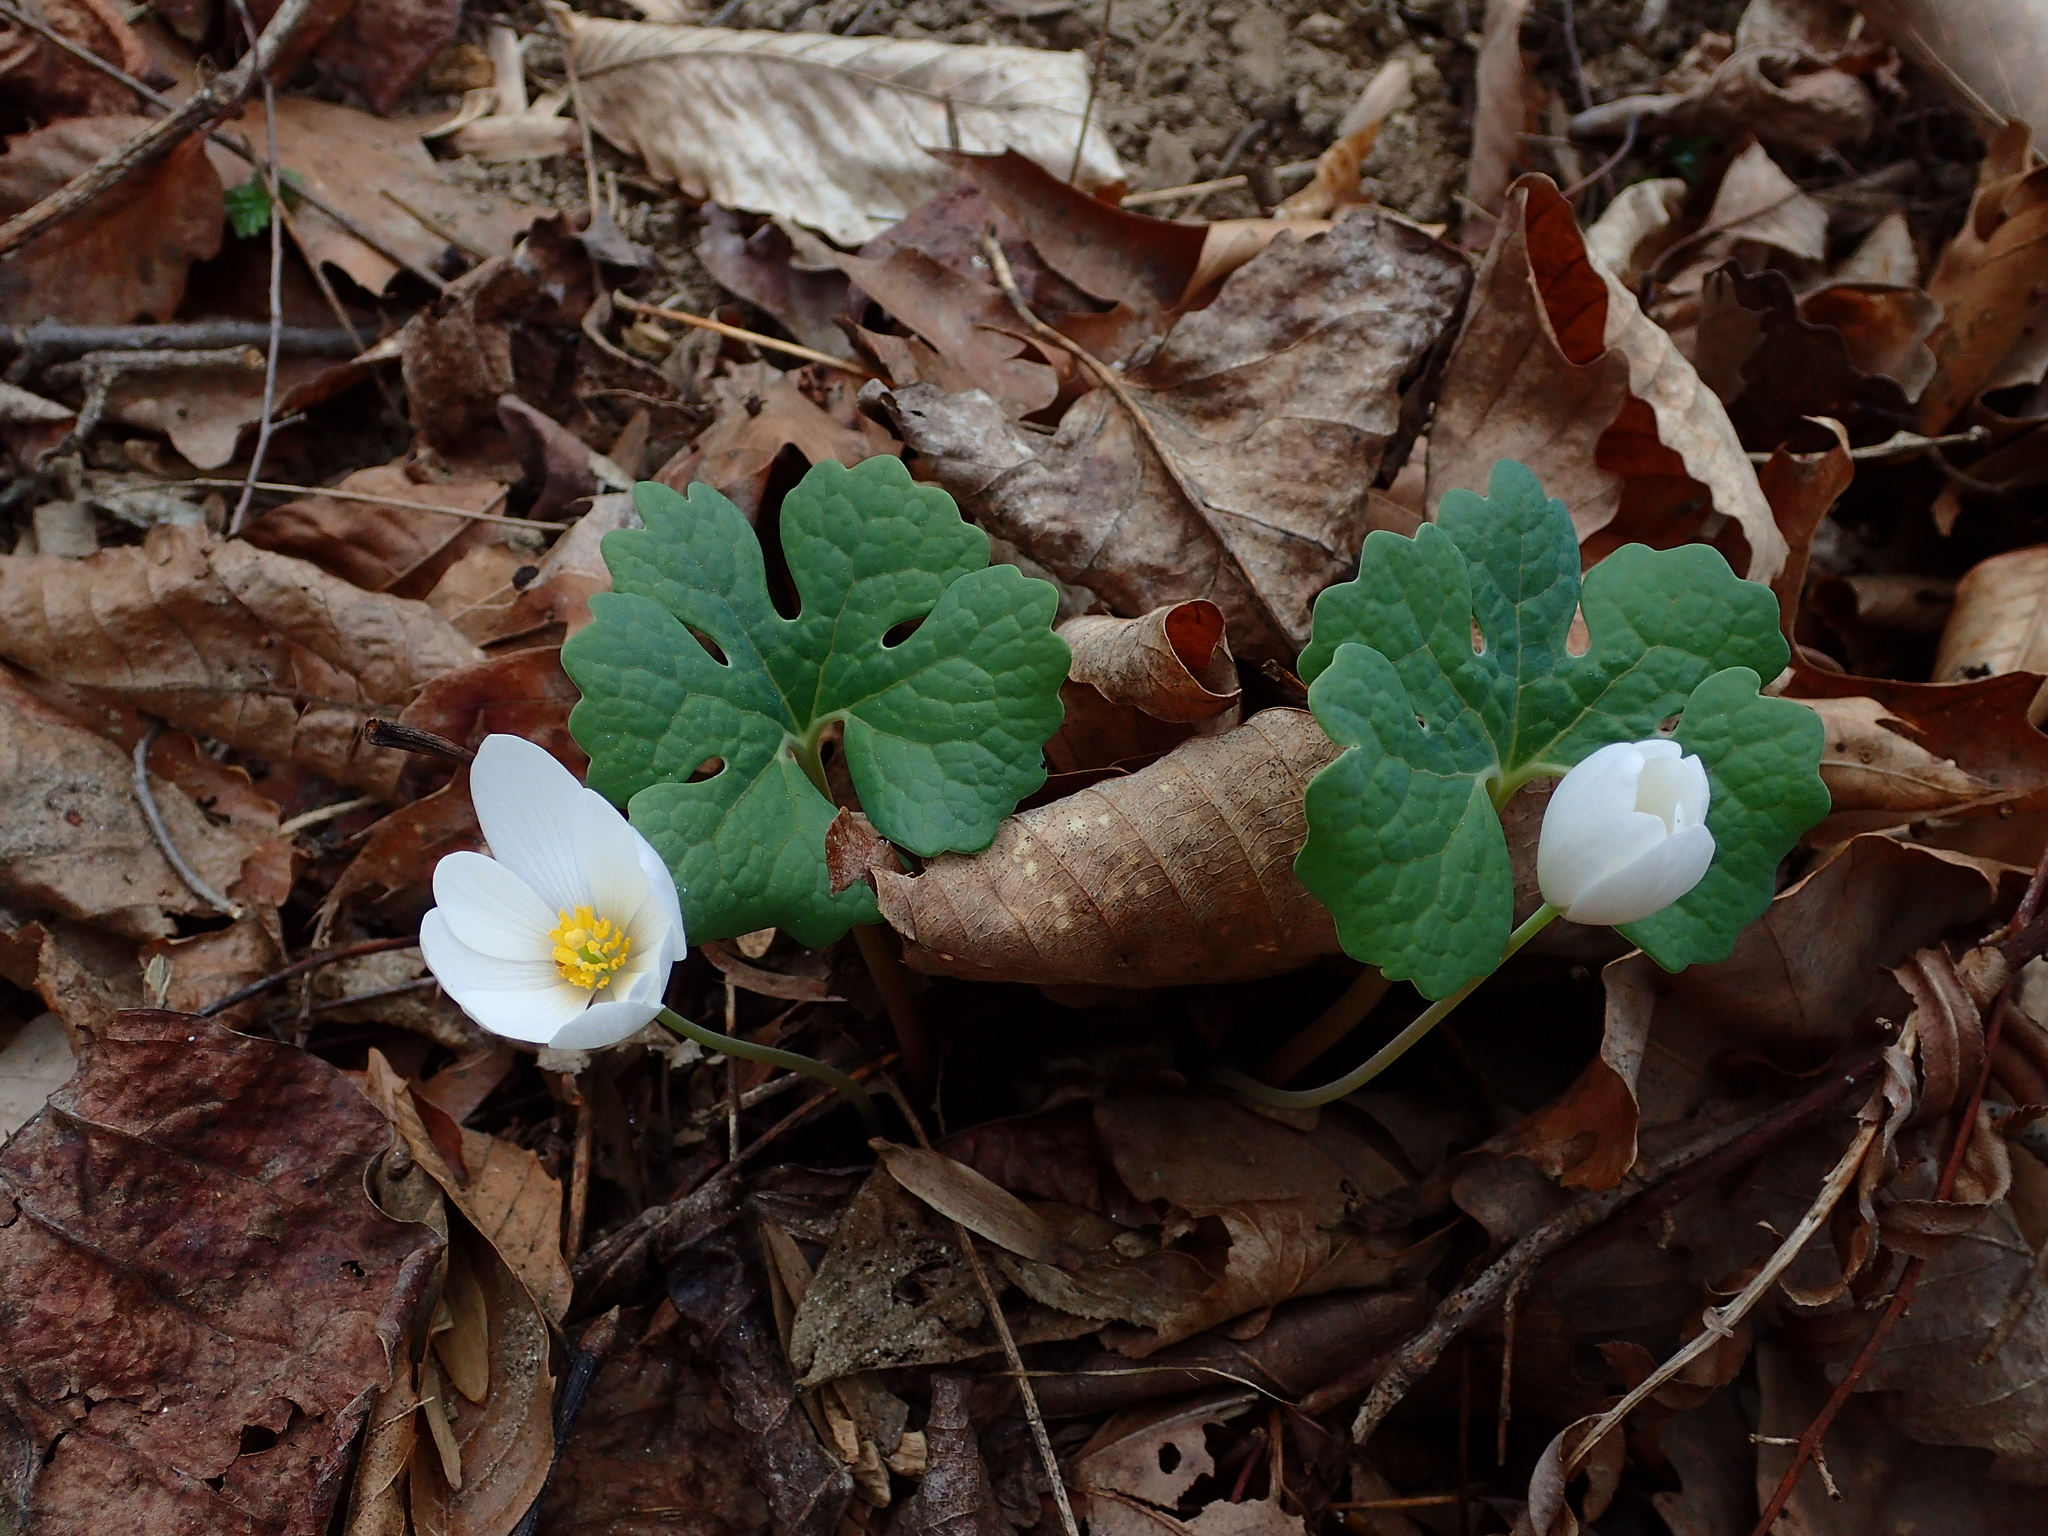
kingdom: Plantae
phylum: Tracheophyta
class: Magnoliopsida
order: Ranunculales
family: Papaveraceae
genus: Sanguinaria
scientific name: Sanguinaria canadensis
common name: Bloodroot
